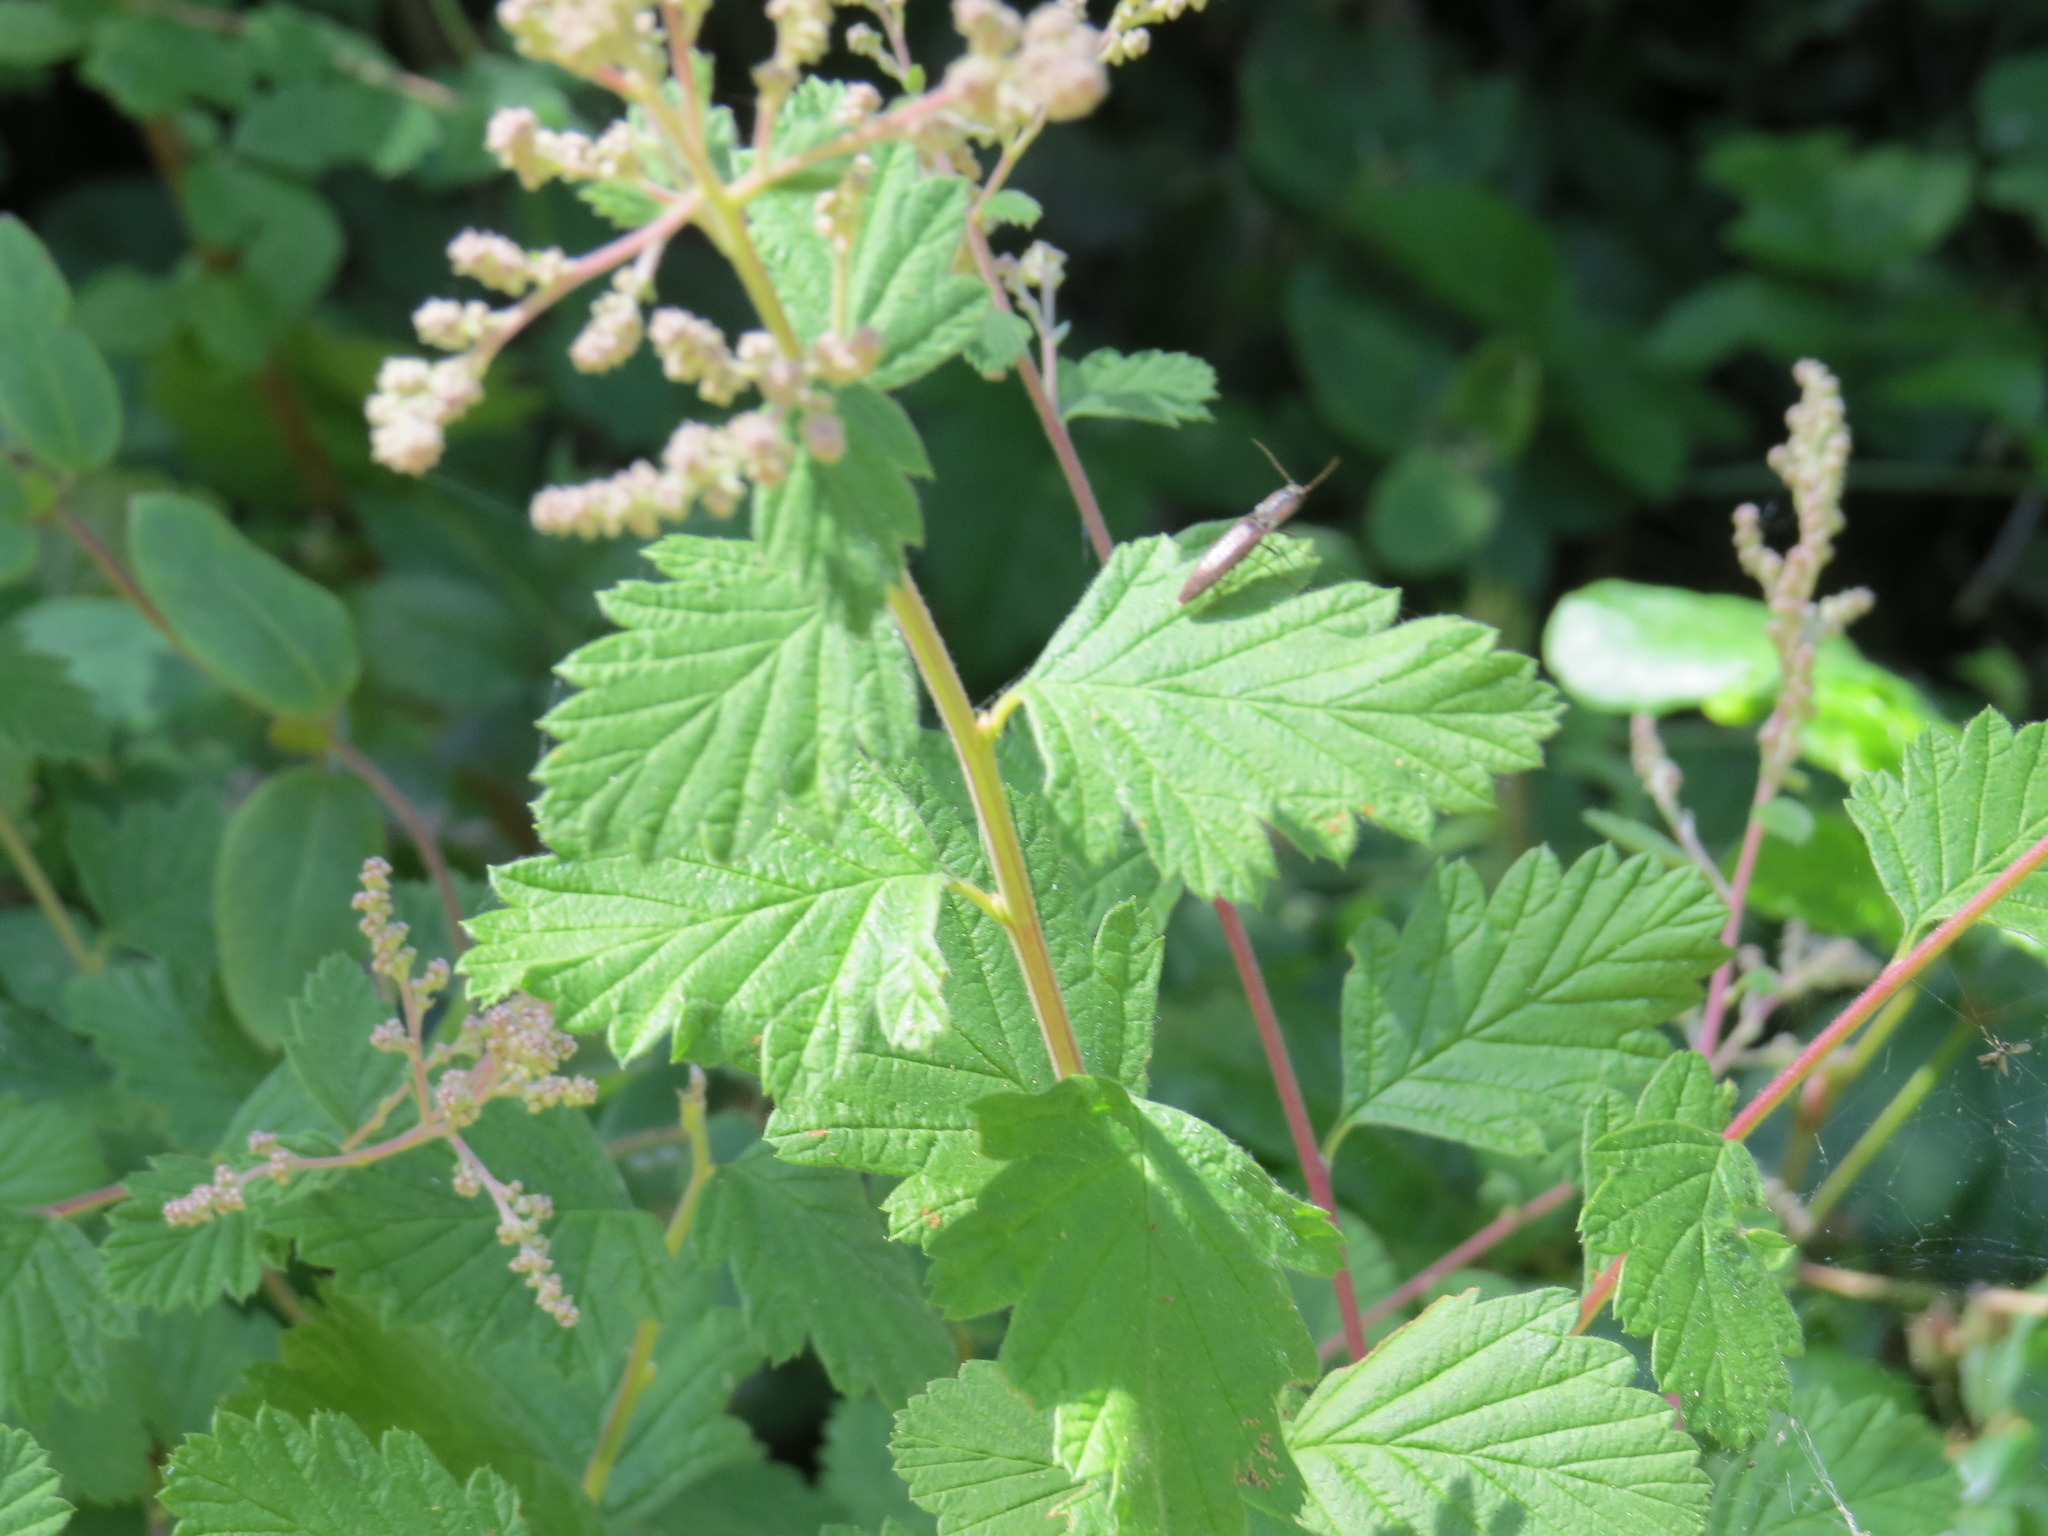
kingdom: Animalia
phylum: Arthropoda
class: Insecta
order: Coleoptera
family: Elateridae
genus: Leptoschema
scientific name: Leptoschema
